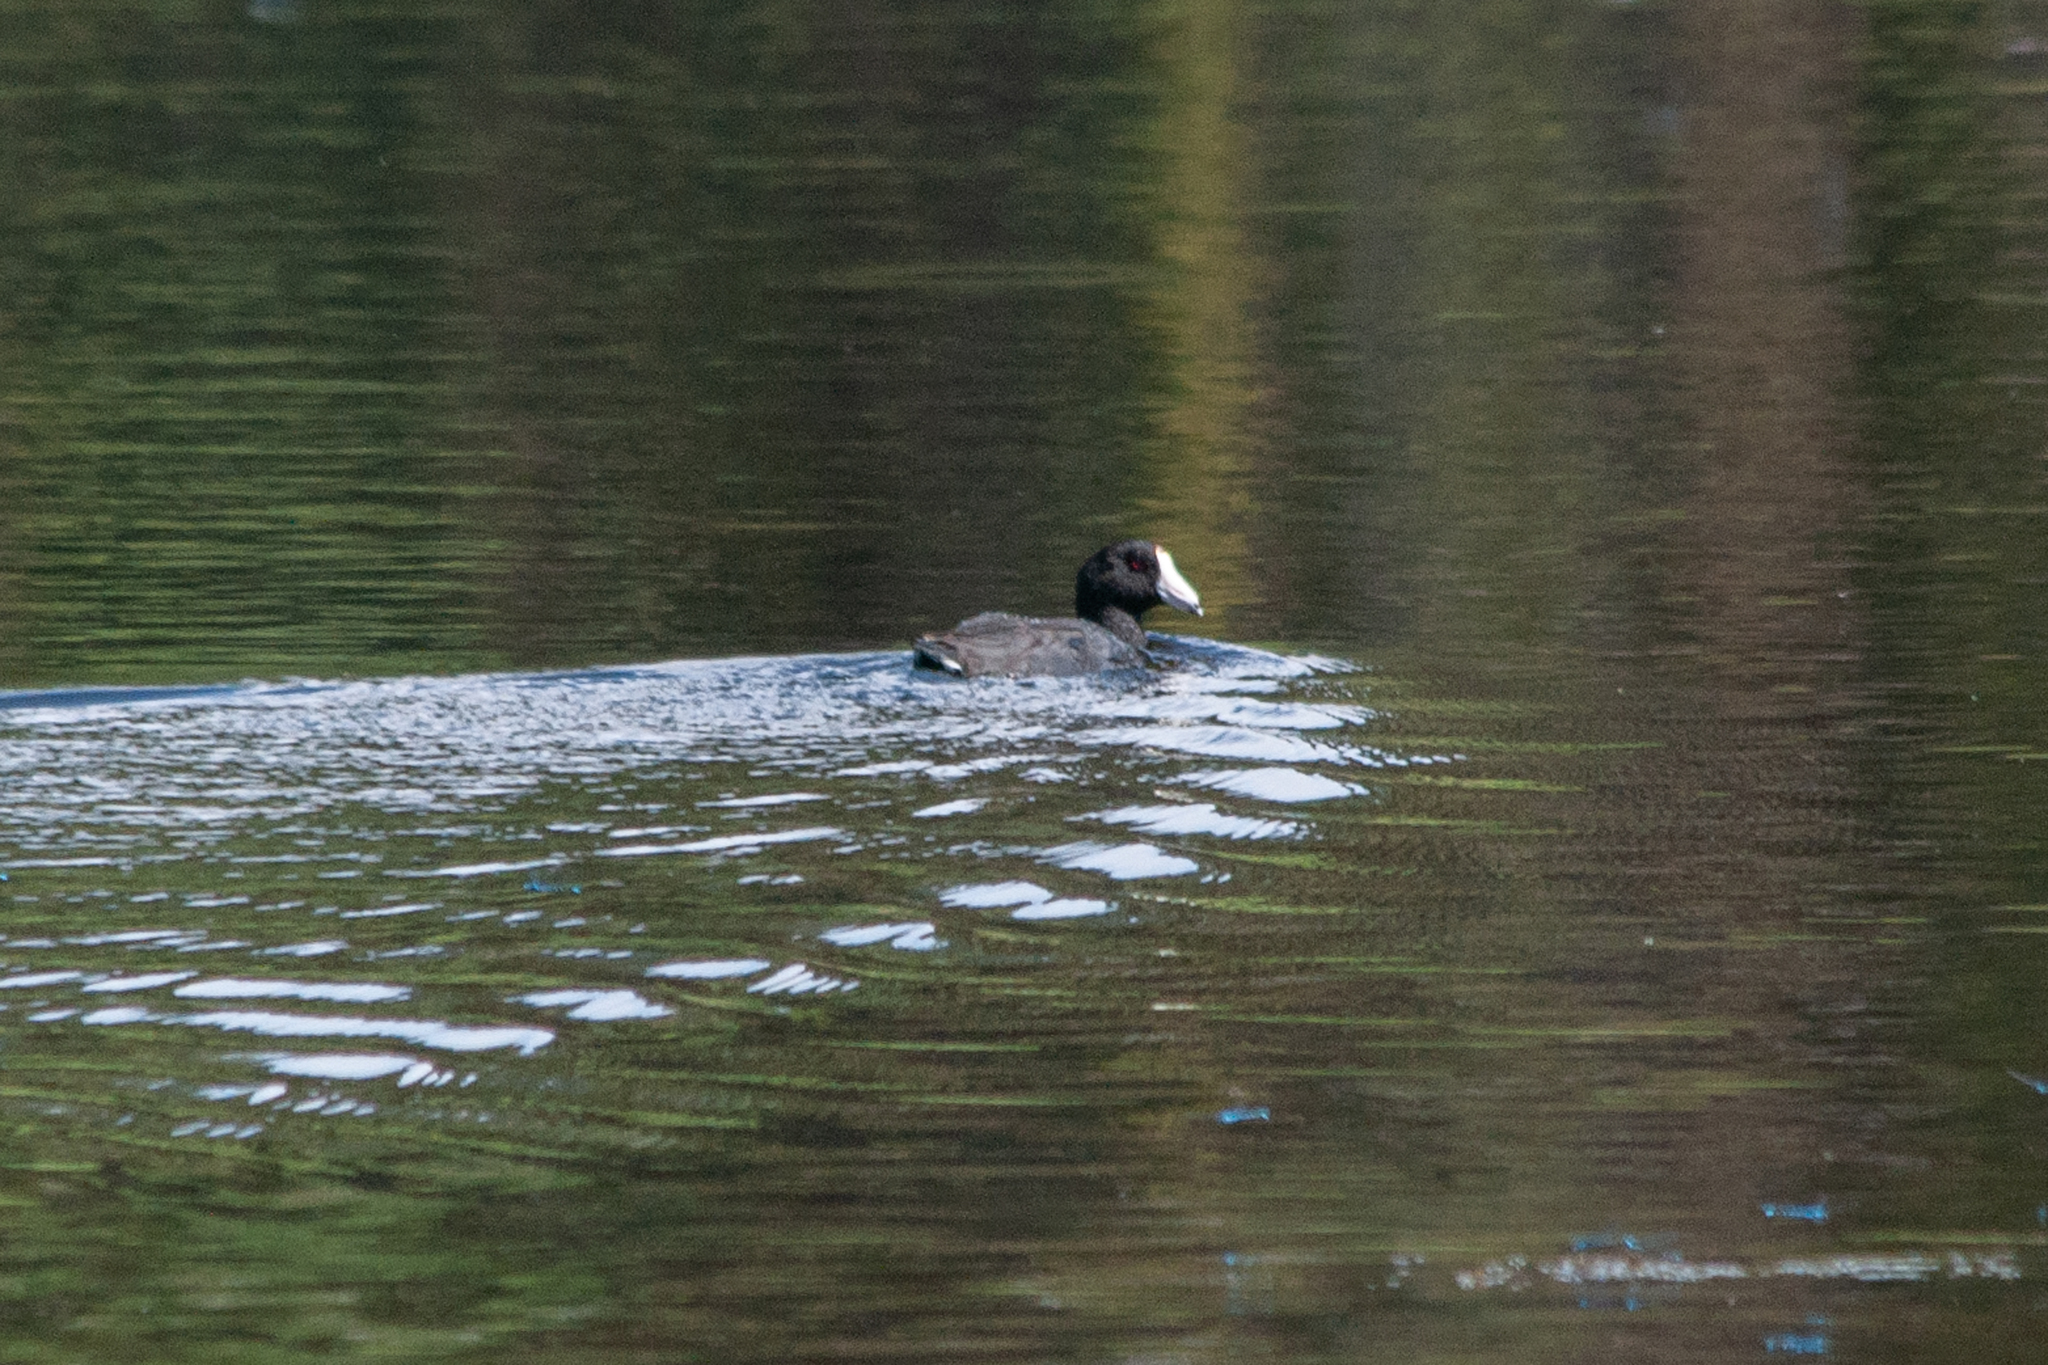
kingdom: Animalia
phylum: Chordata
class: Aves
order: Gruiformes
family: Rallidae
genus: Fulica
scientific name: Fulica americana
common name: American coot
